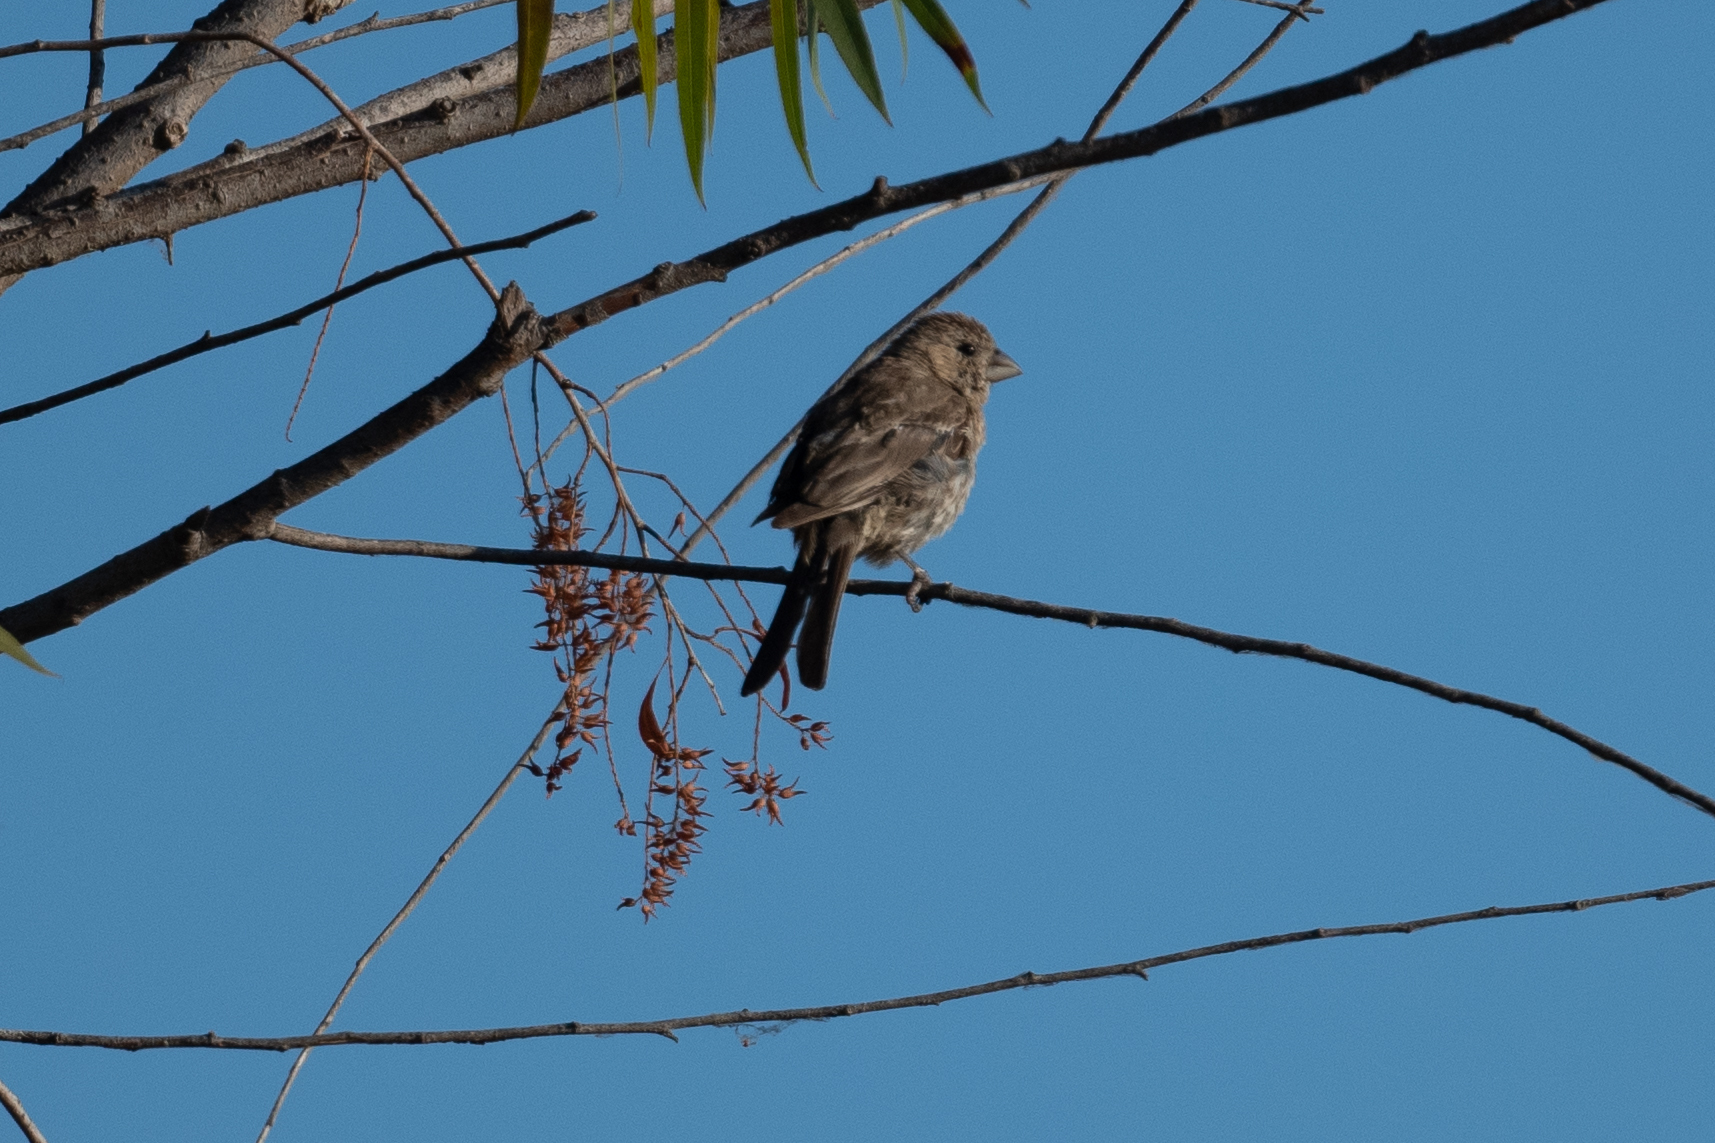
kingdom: Animalia
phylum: Chordata
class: Aves
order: Passeriformes
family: Fringillidae
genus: Haemorhous
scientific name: Haemorhous mexicanus
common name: House finch
